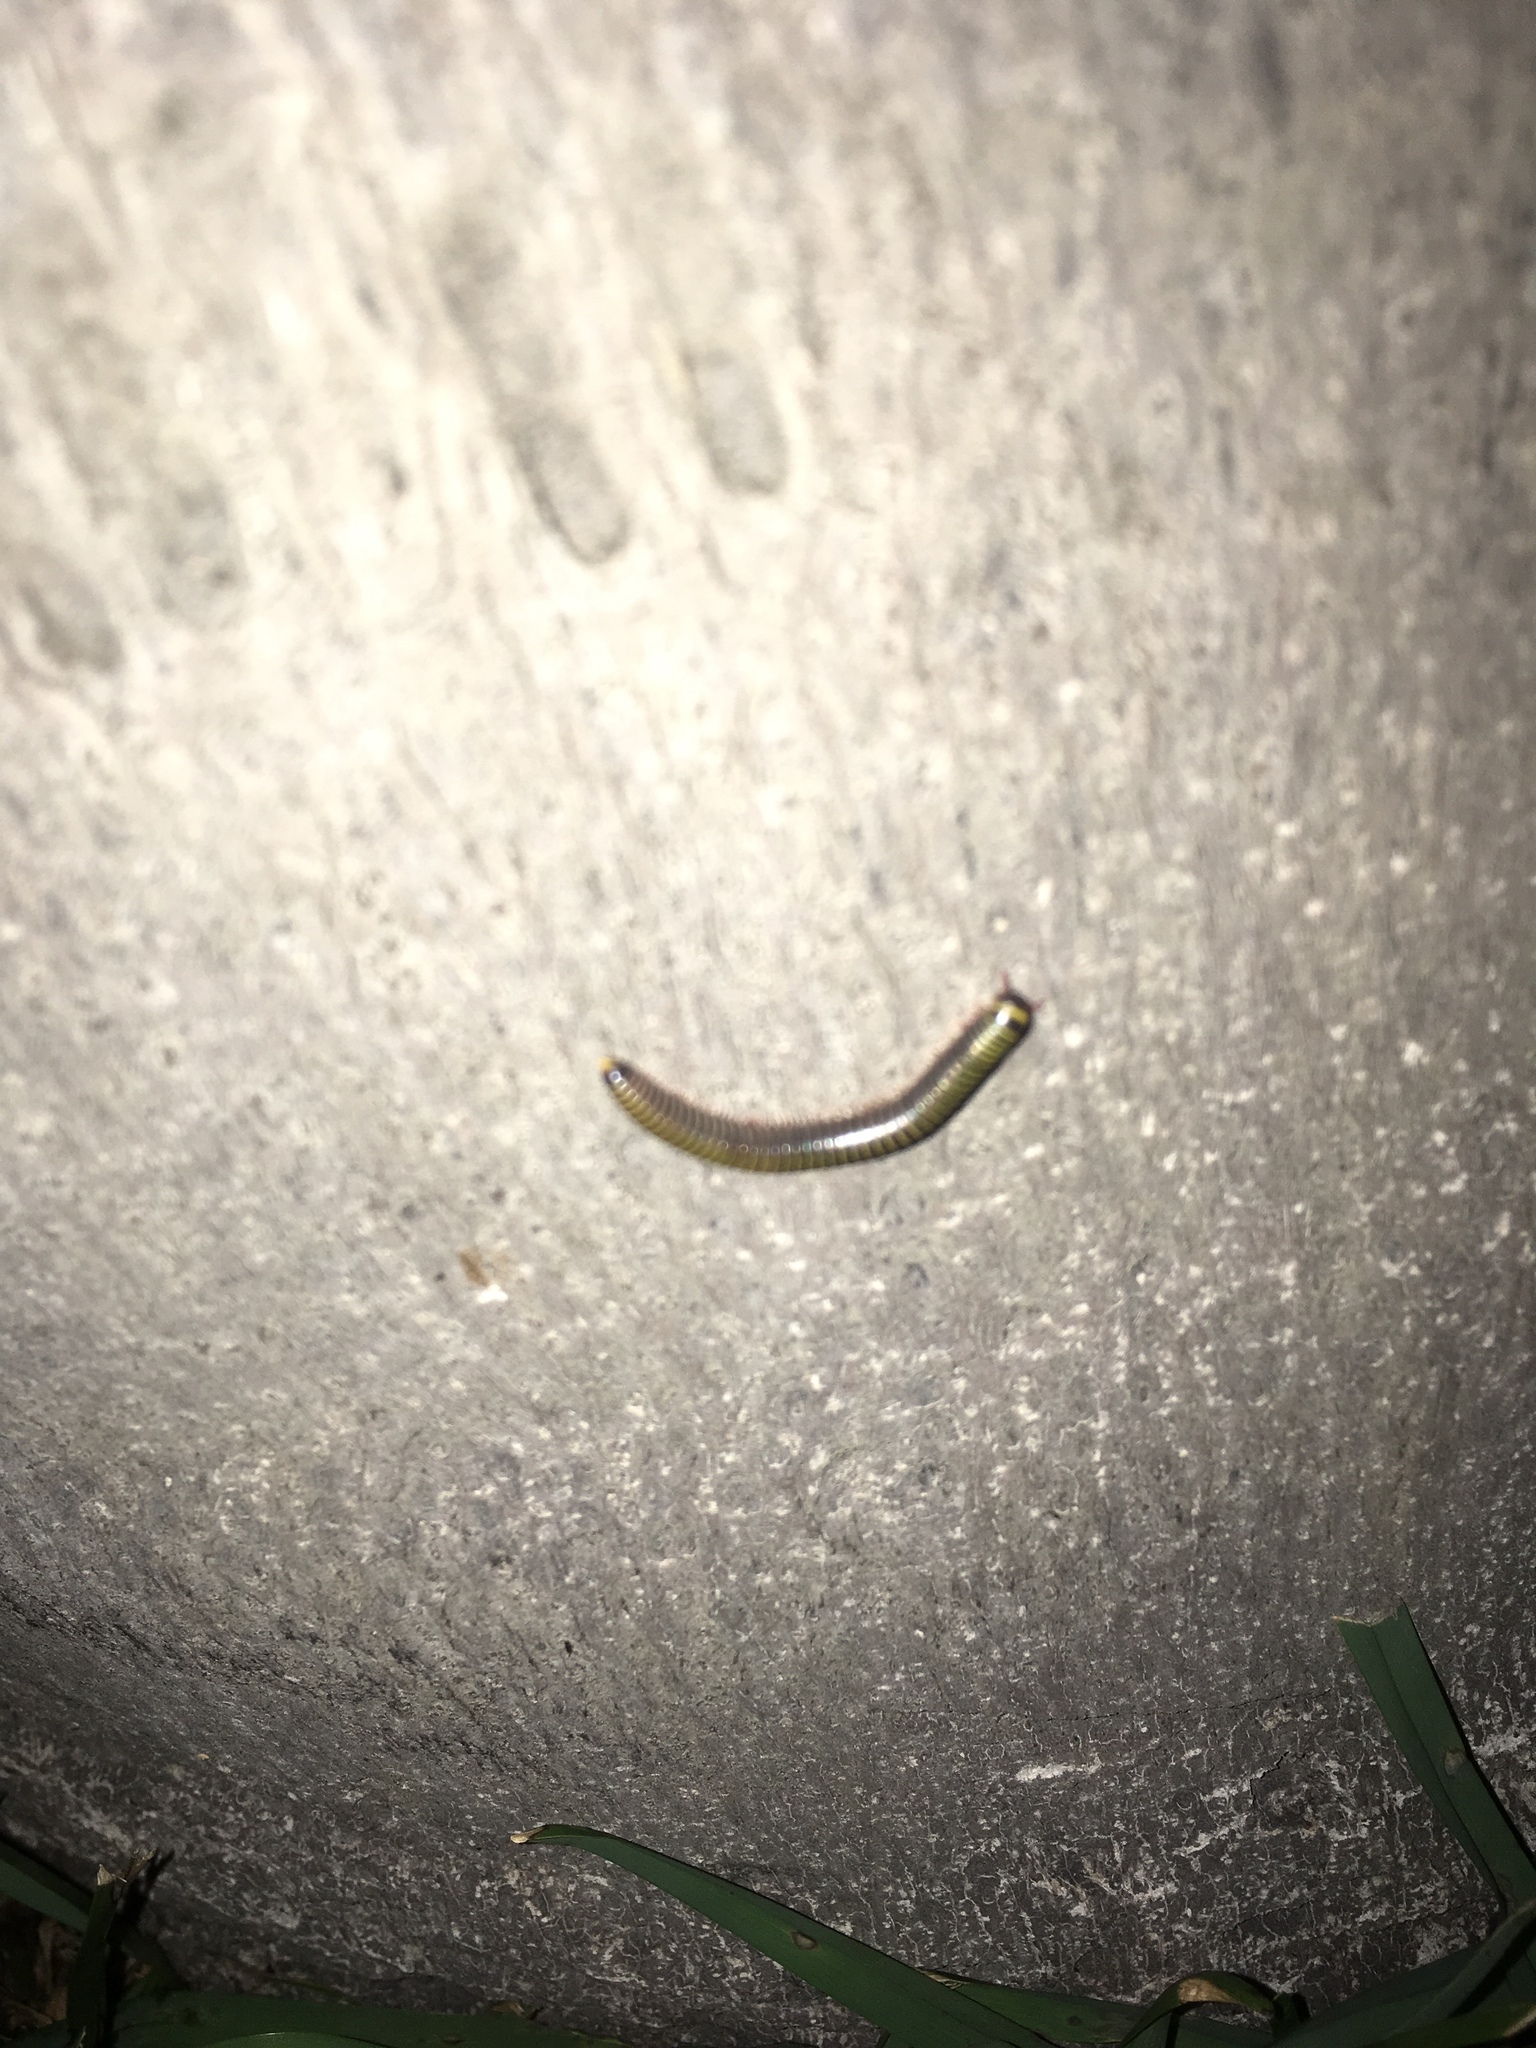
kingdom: Animalia
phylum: Arthropoda
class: Diplopoda
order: Spirobolida
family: Rhinocricidae
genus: Anadenobolus
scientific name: Anadenobolus monilicornis
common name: Caribbean millipede
